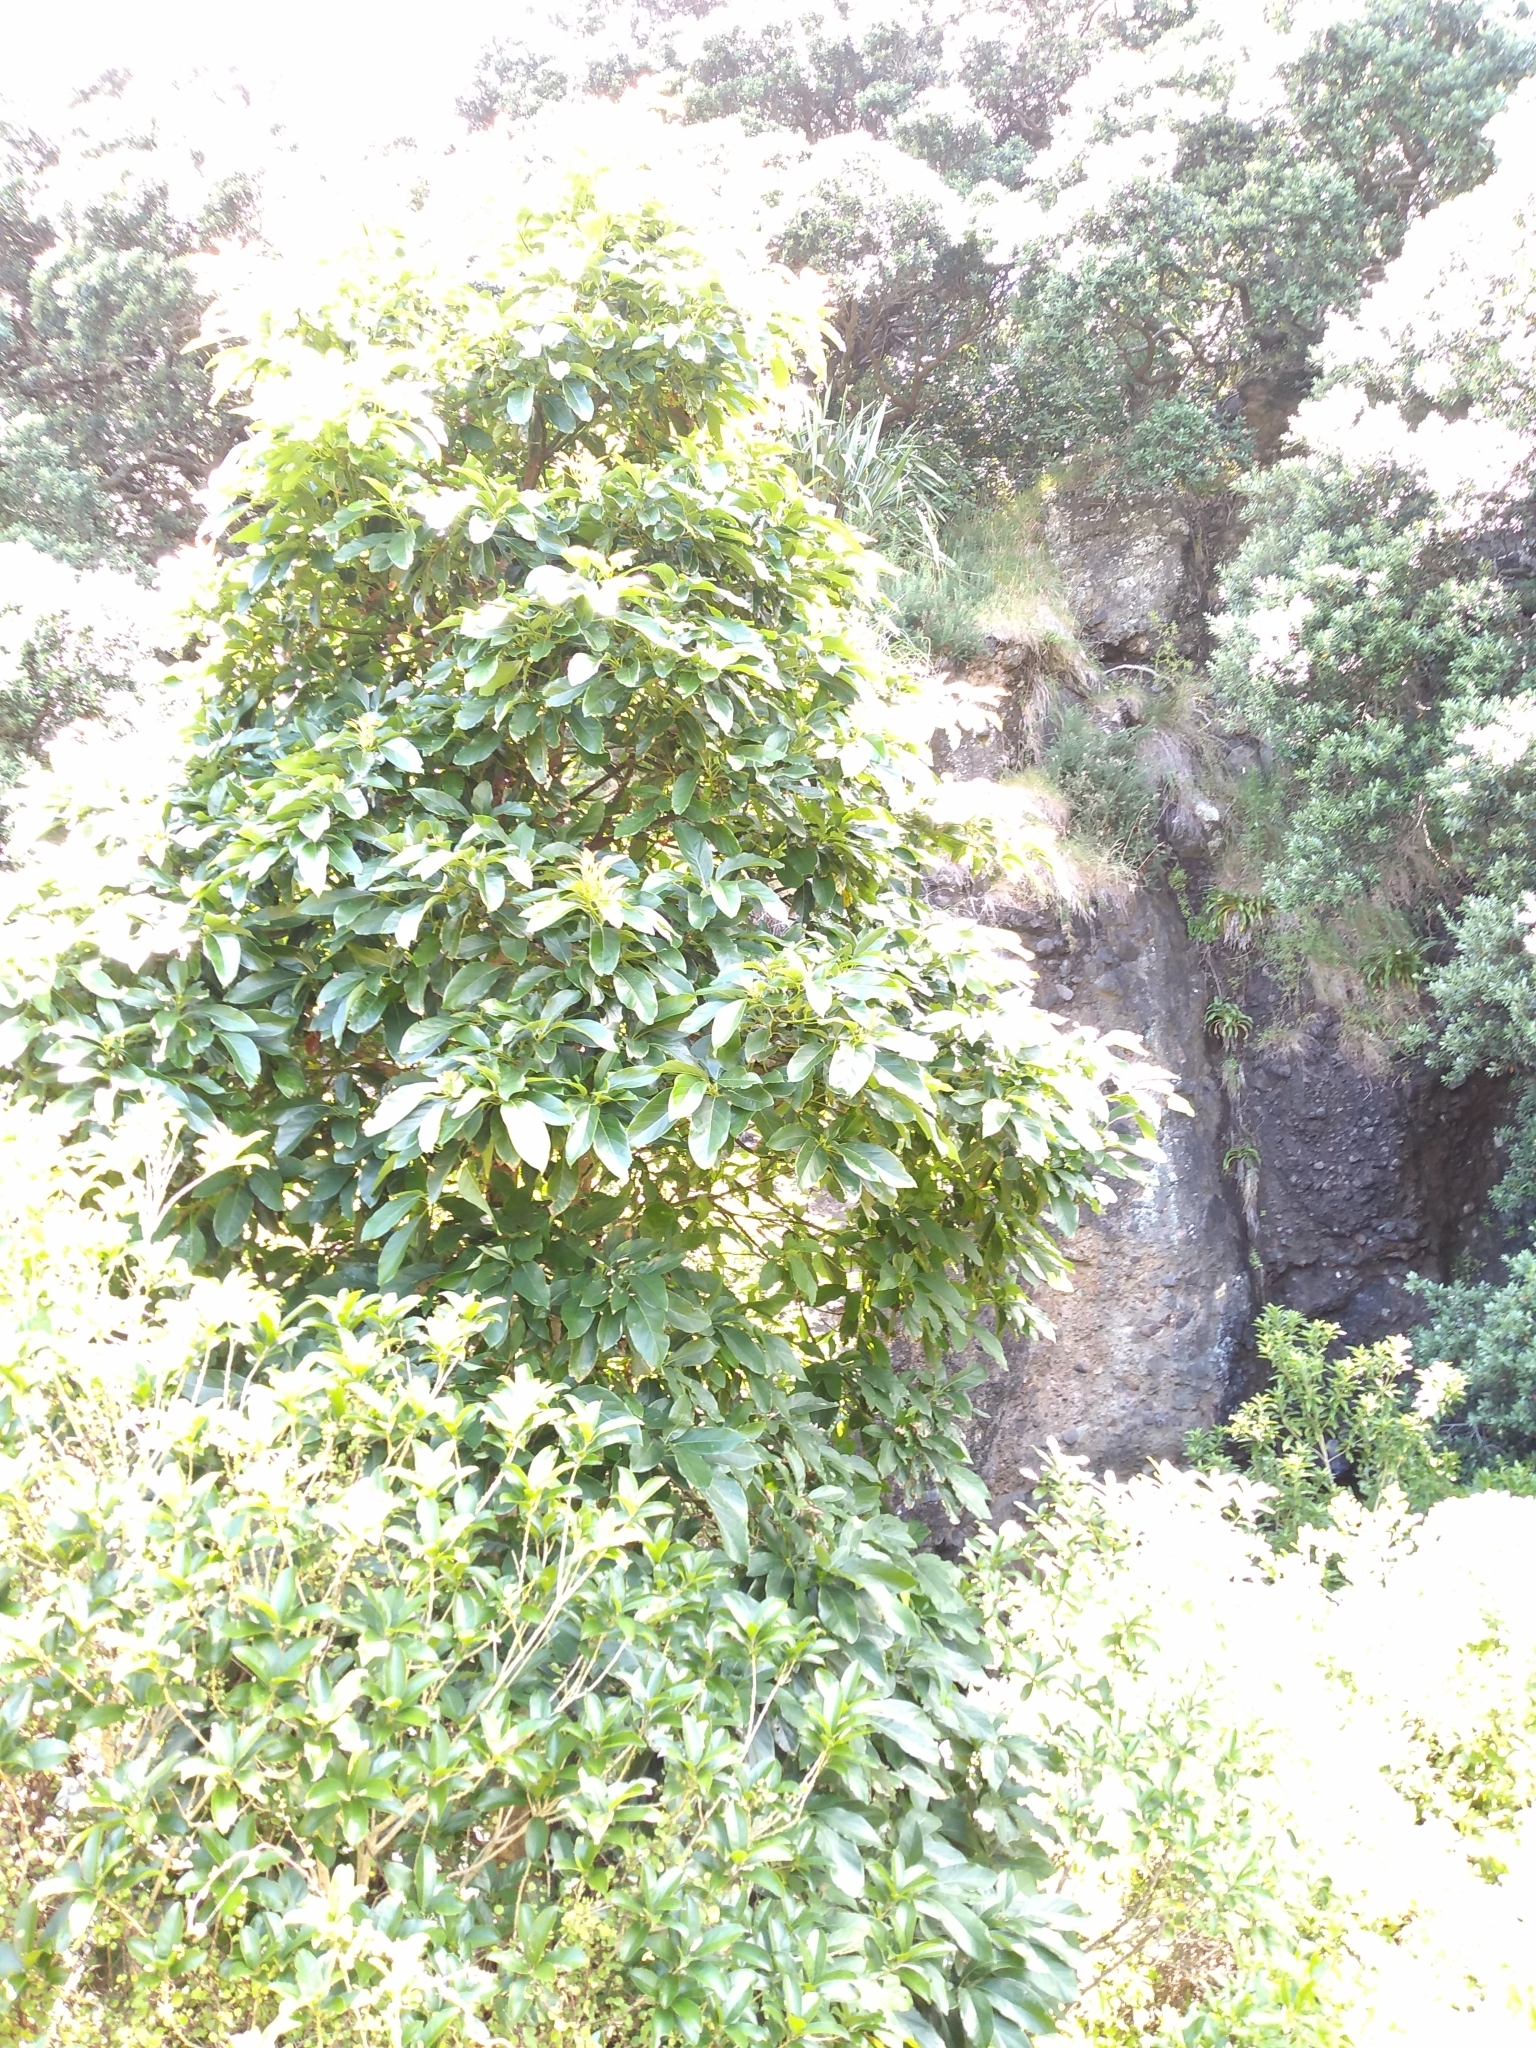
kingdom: Plantae
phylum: Tracheophyta
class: Magnoliopsida
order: Laurales
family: Lauraceae
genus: Persea
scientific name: Persea americana
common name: Avocado
